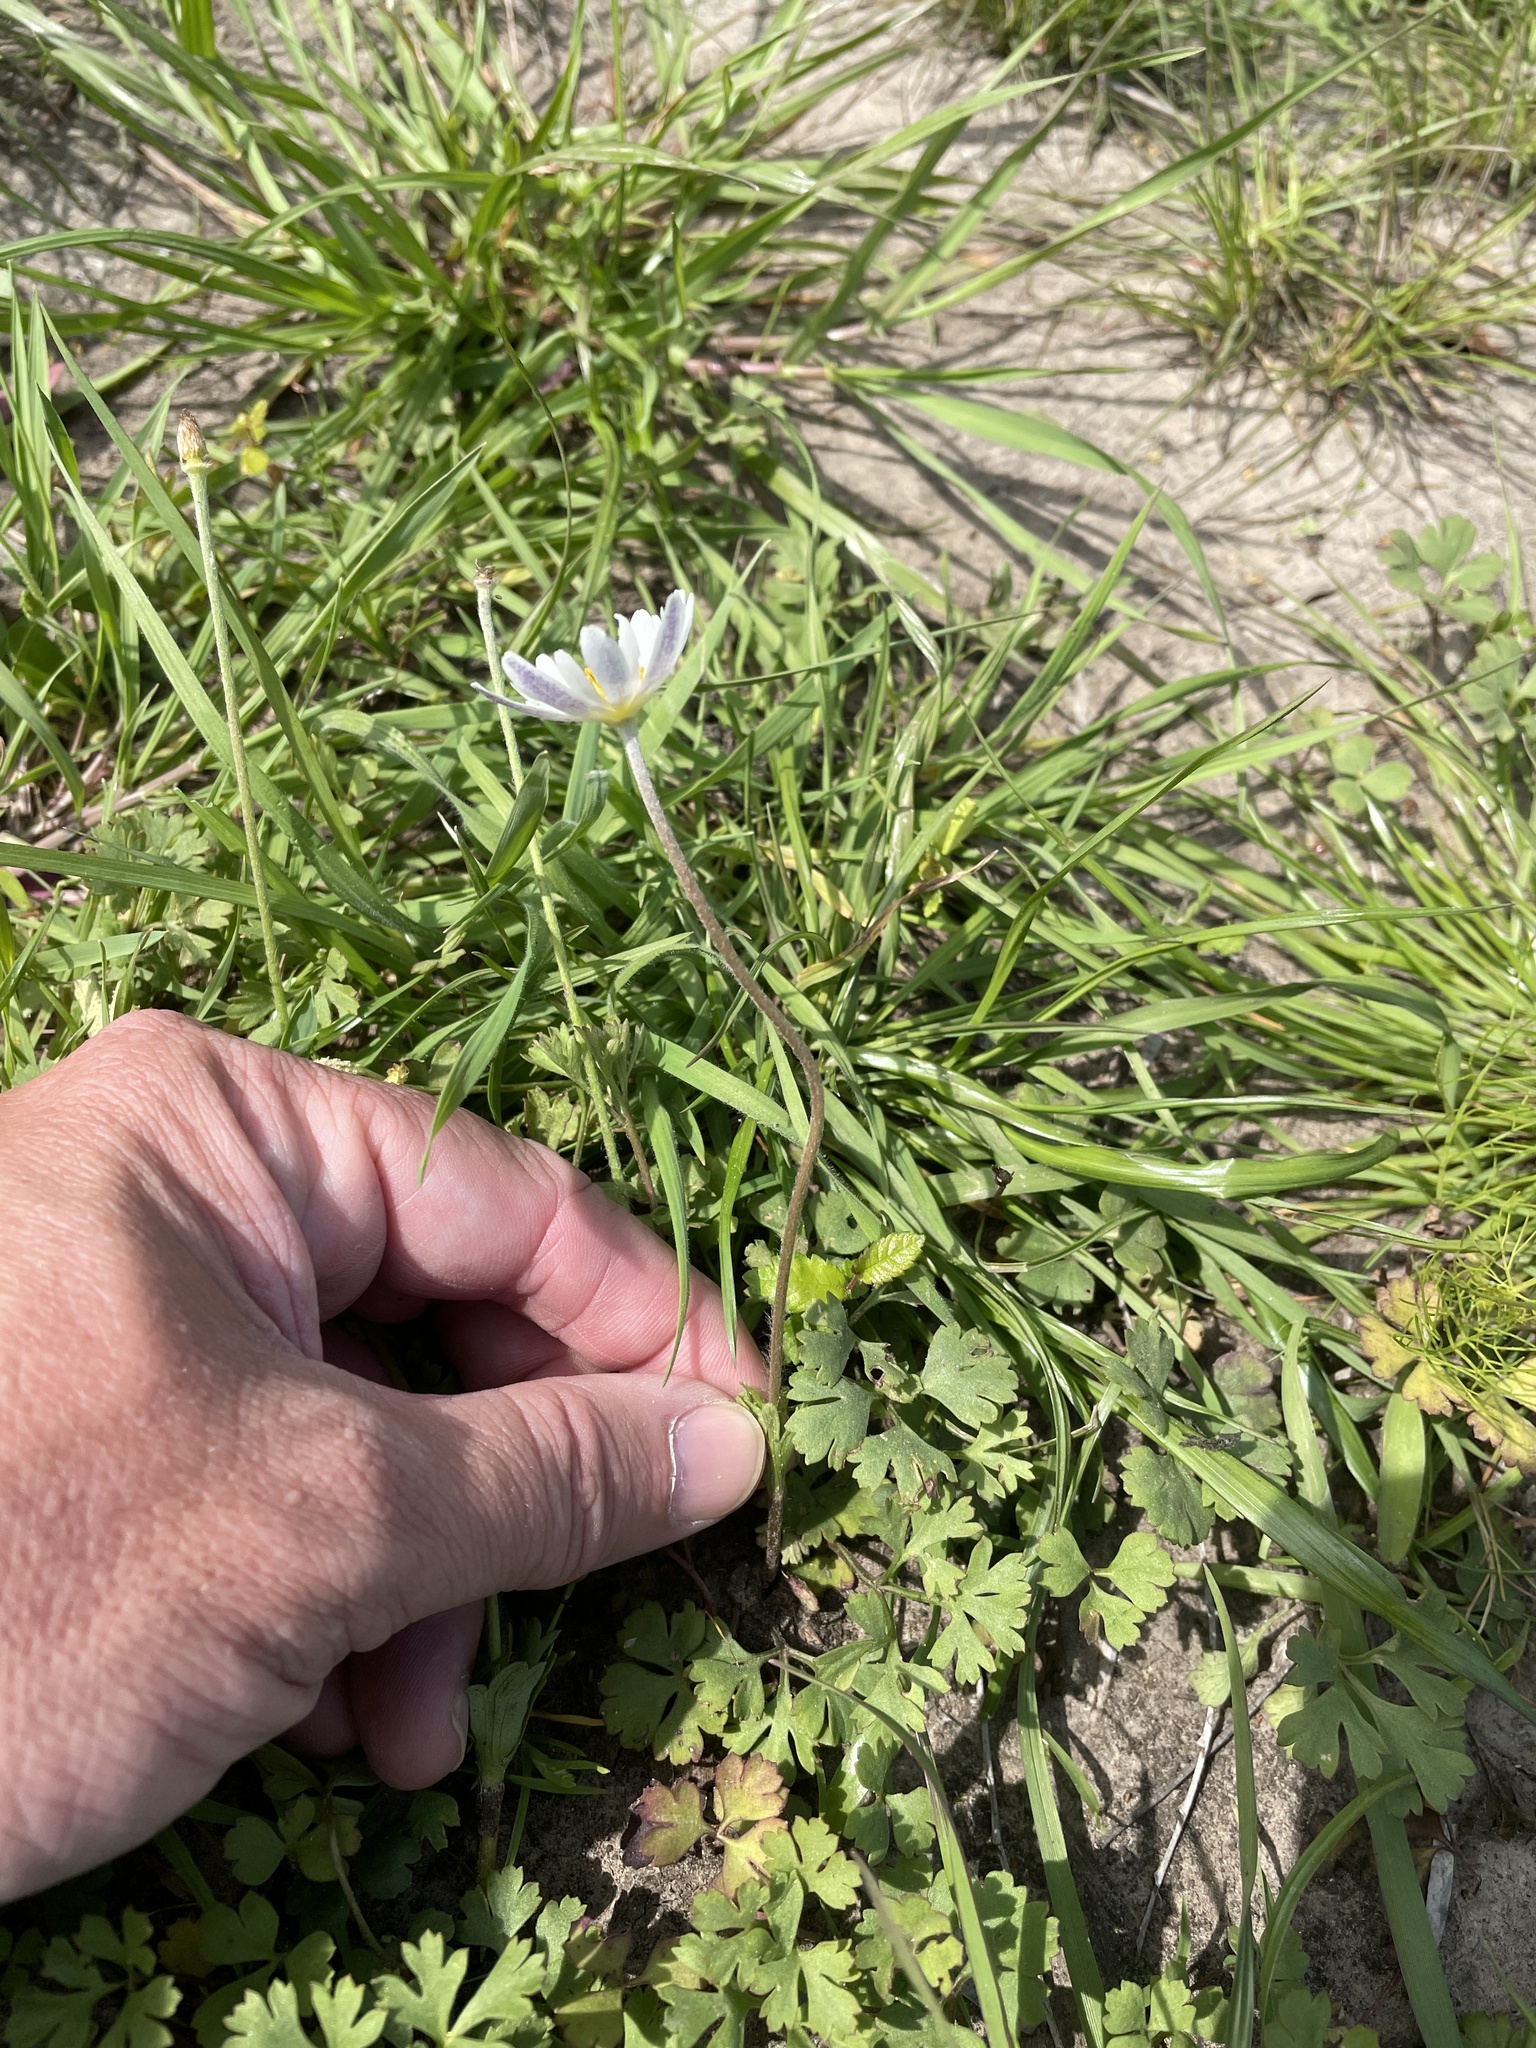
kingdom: Plantae
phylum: Tracheophyta
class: Magnoliopsida
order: Ranunculales
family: Ranunculaceae
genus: Anemone
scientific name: Anemone caroliniana
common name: Carolina anemone
